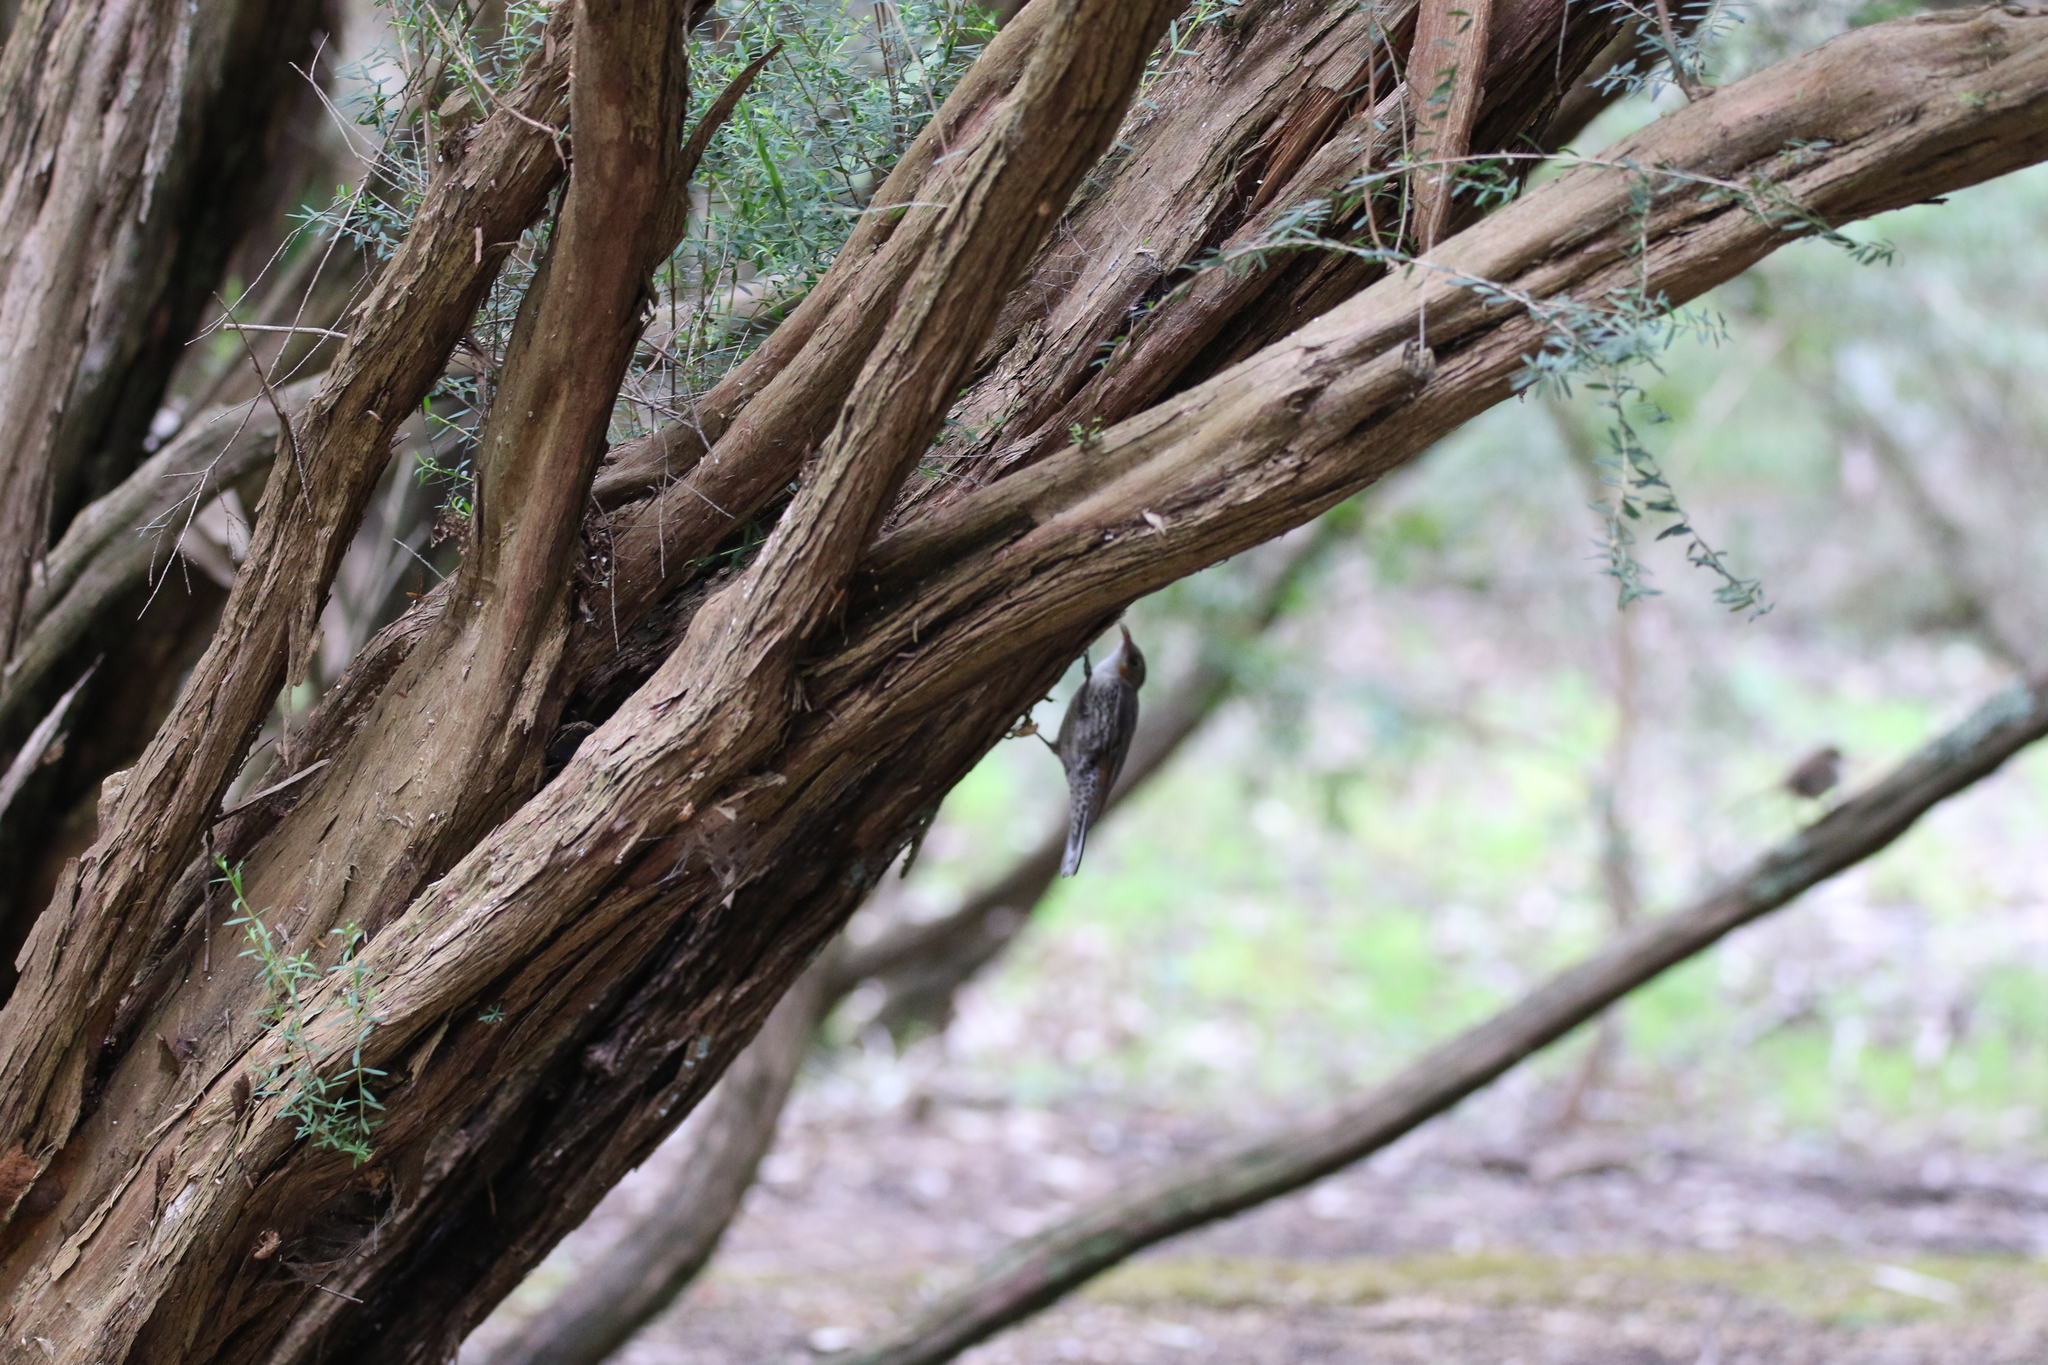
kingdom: Animalia
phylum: Chordata
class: Aves
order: Passeriformes
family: Climacteridae
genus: Cormobates
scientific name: Cormobates leucophaea
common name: White-throated treecreeper
